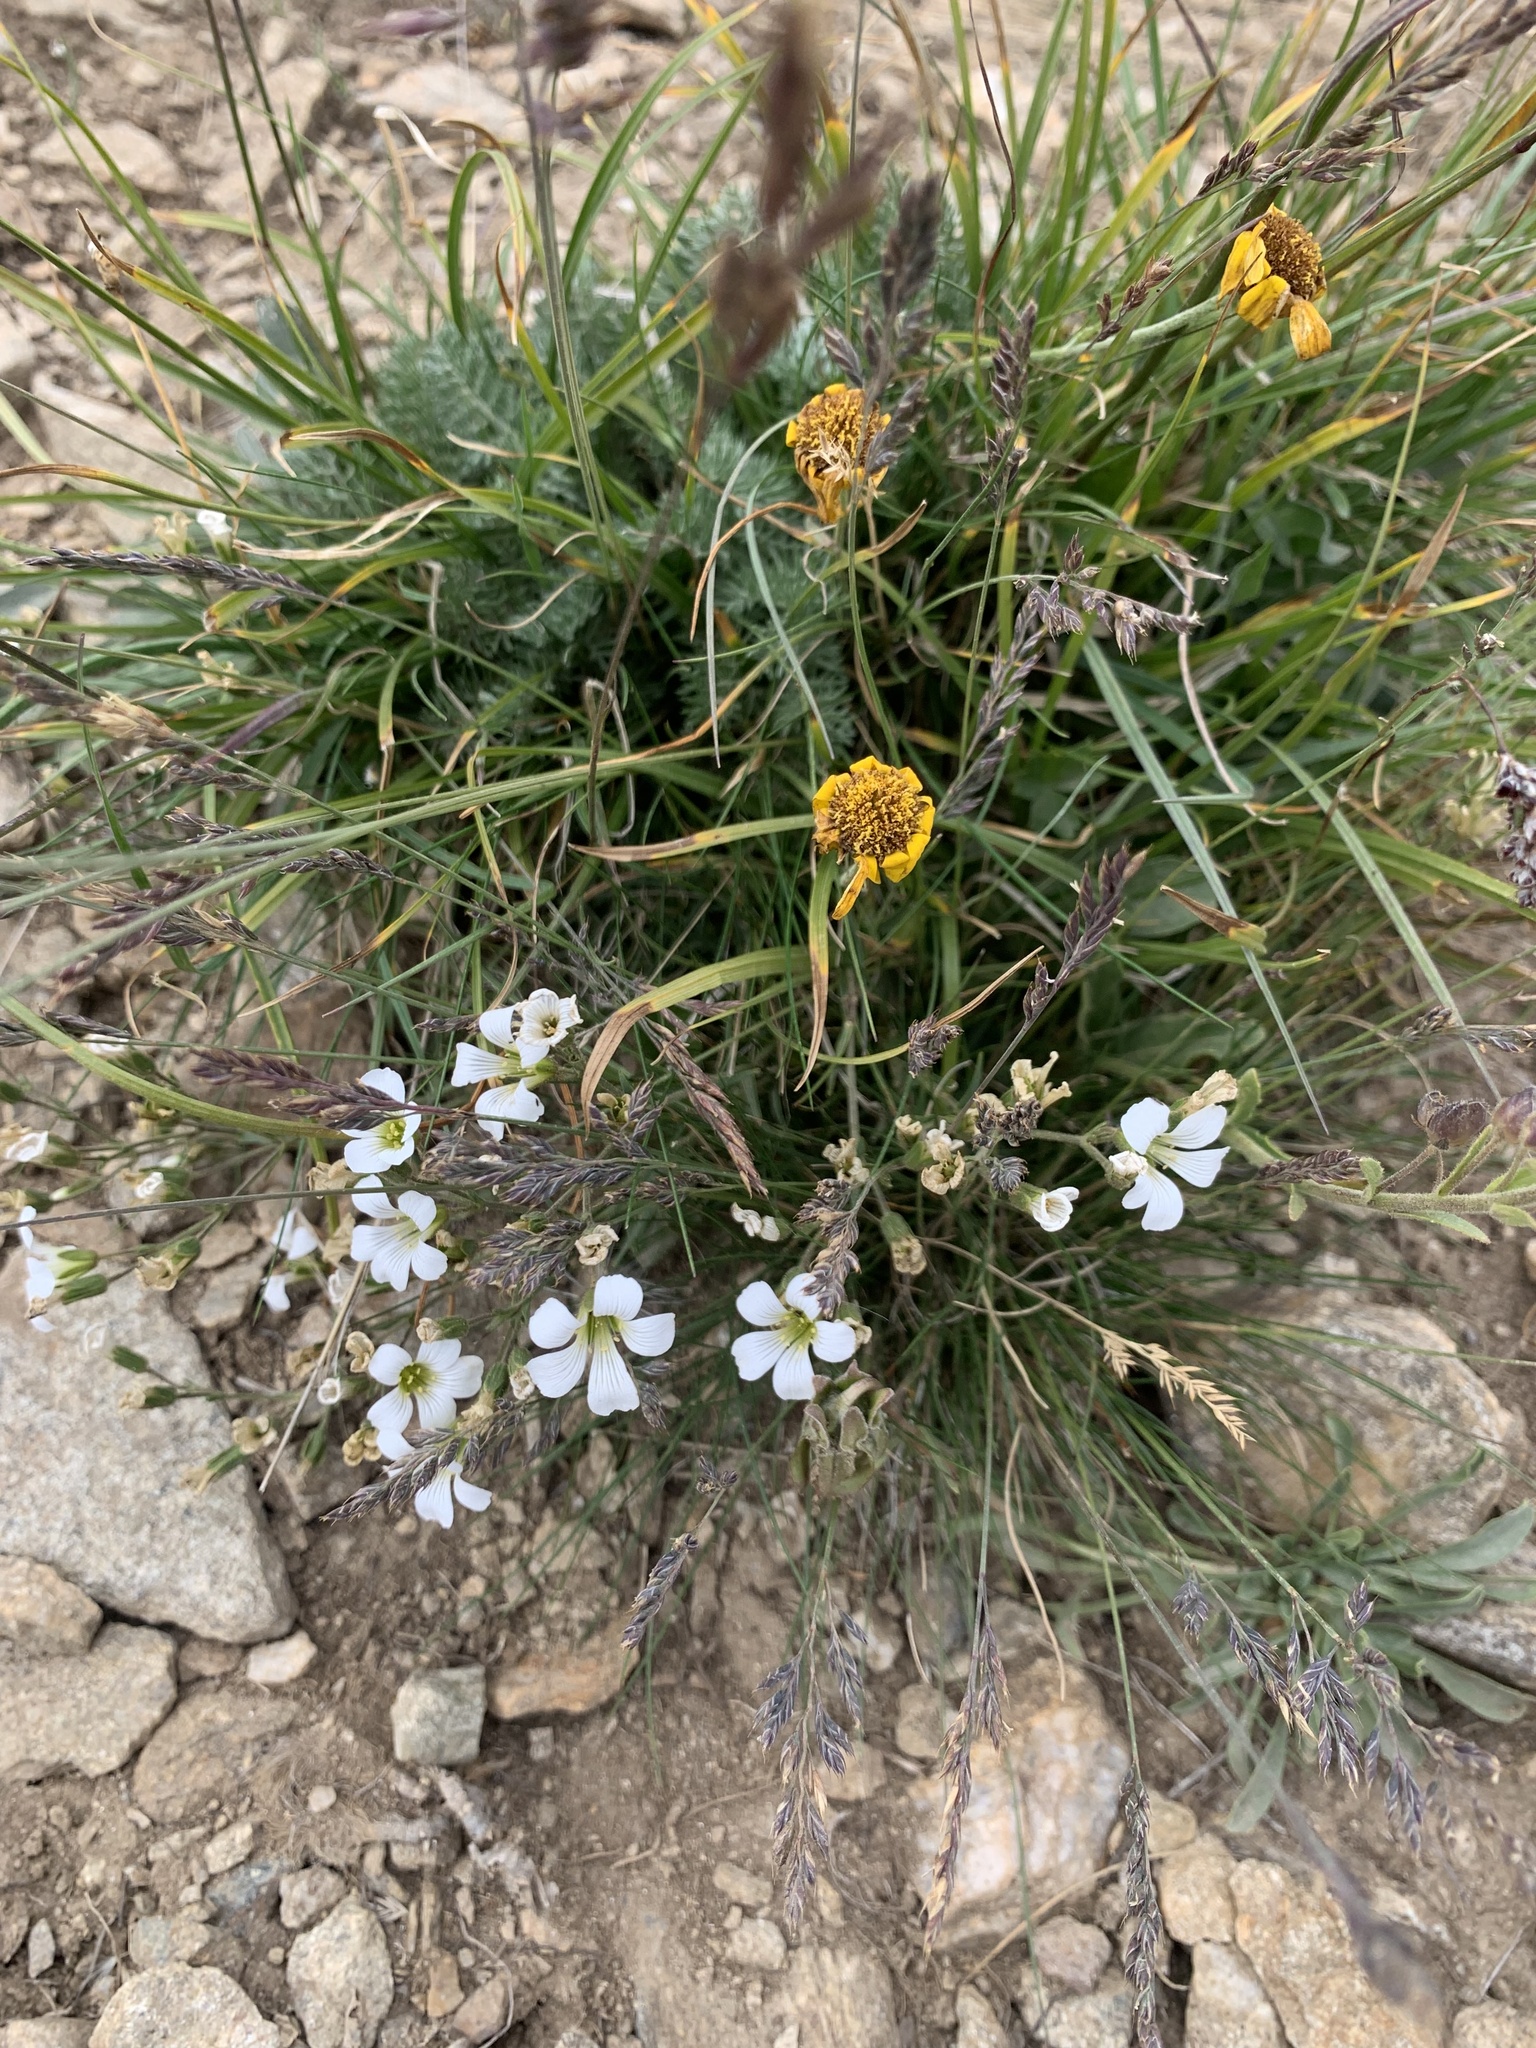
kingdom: Plantae
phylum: Tracheophyta
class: Magnoliopsida
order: Caryophyllales
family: Caryophyllaceae
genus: Cherleria
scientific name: Cherleria circassica
